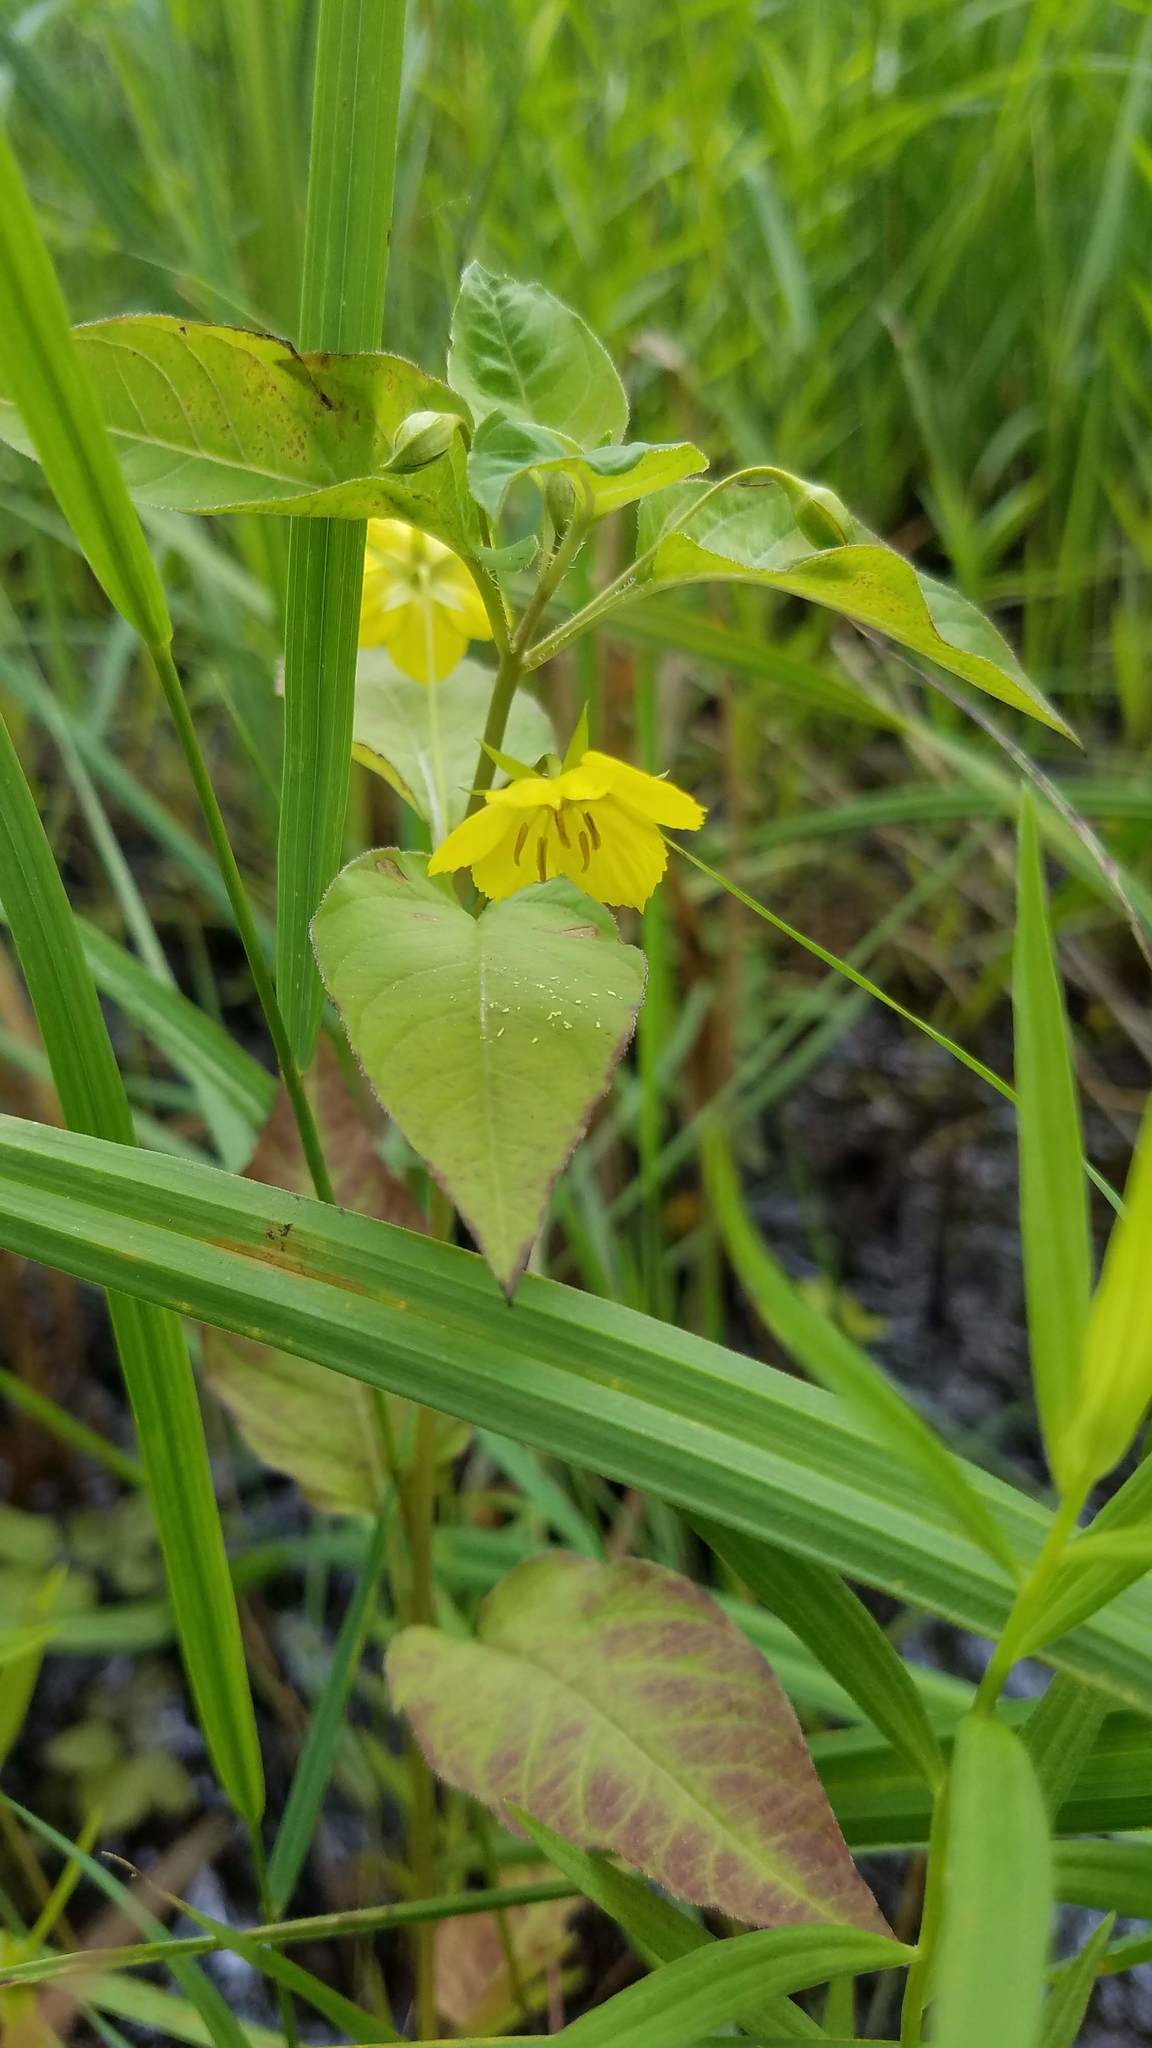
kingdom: Plantae
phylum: Tracheophyta
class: Magnoliopsida
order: Ericales
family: Primulaceae
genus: Lysimachia
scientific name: Lysimachia ciliata
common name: Fringed loosestrife
